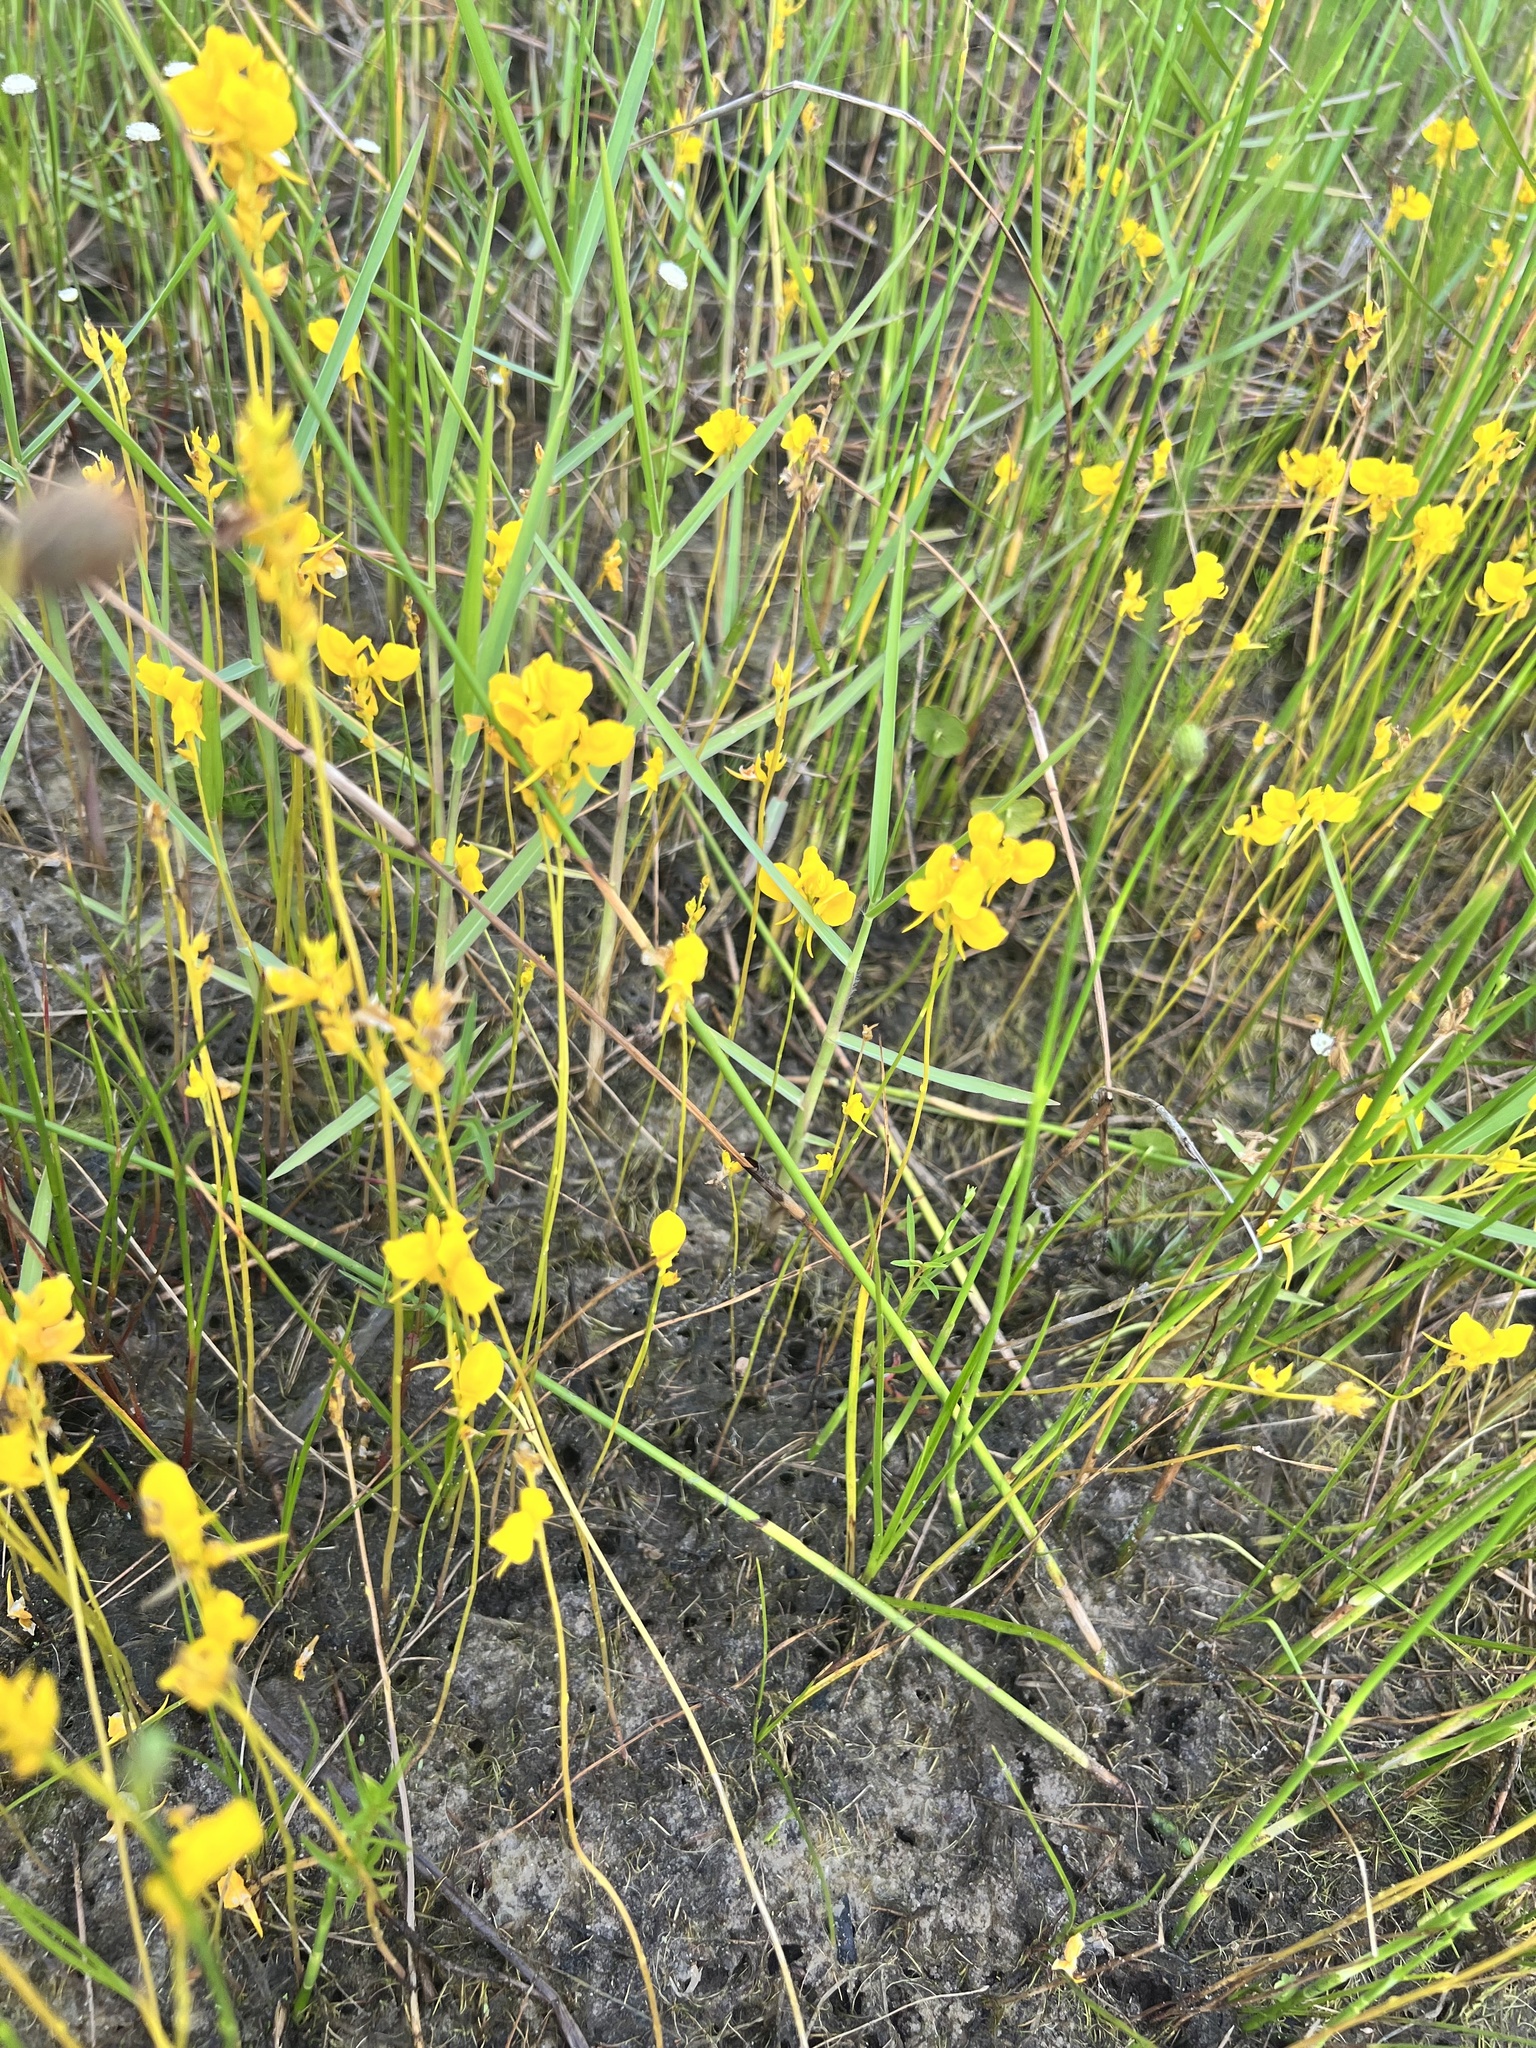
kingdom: Plantae
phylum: Tracheophyta
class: Magnoliopsida
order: Lamiales
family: Lentibulariaceae
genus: Utricularia
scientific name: Utricularia cornuta
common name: Horned bladderwort
